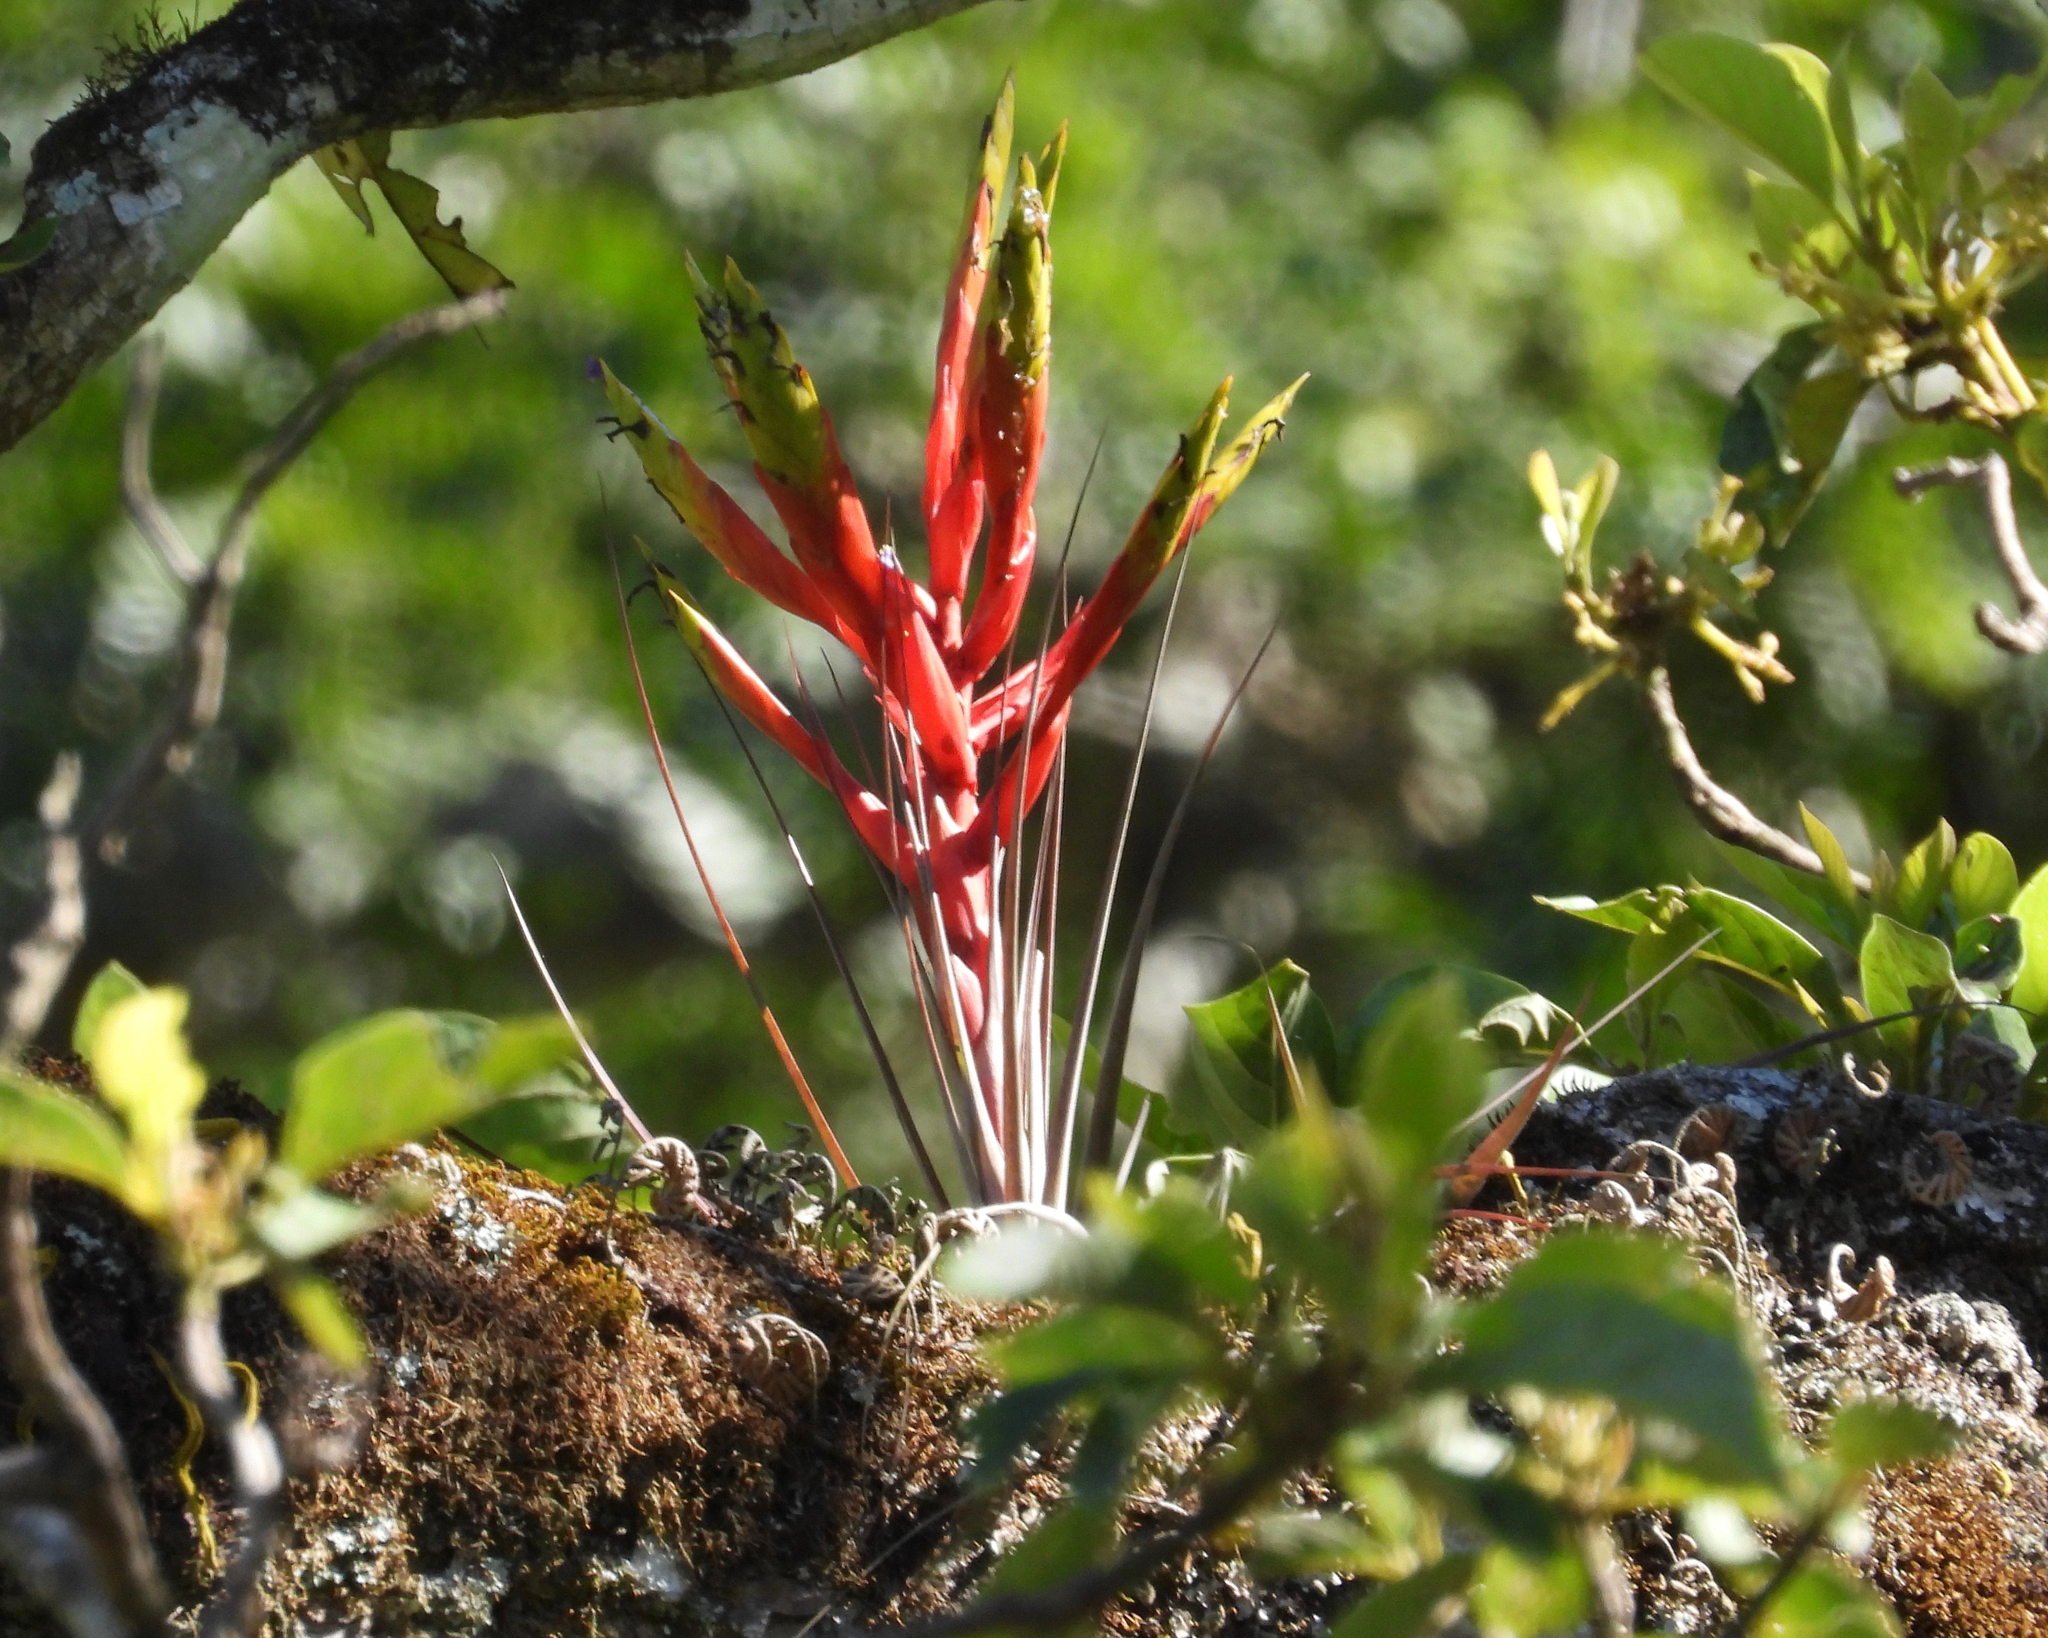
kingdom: Plantae
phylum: Tracheophyta
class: Liliopsida
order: Poales
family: Bromeliaceae
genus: Tillandsia
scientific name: Tillandsia fasciculata
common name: Giant airplant
